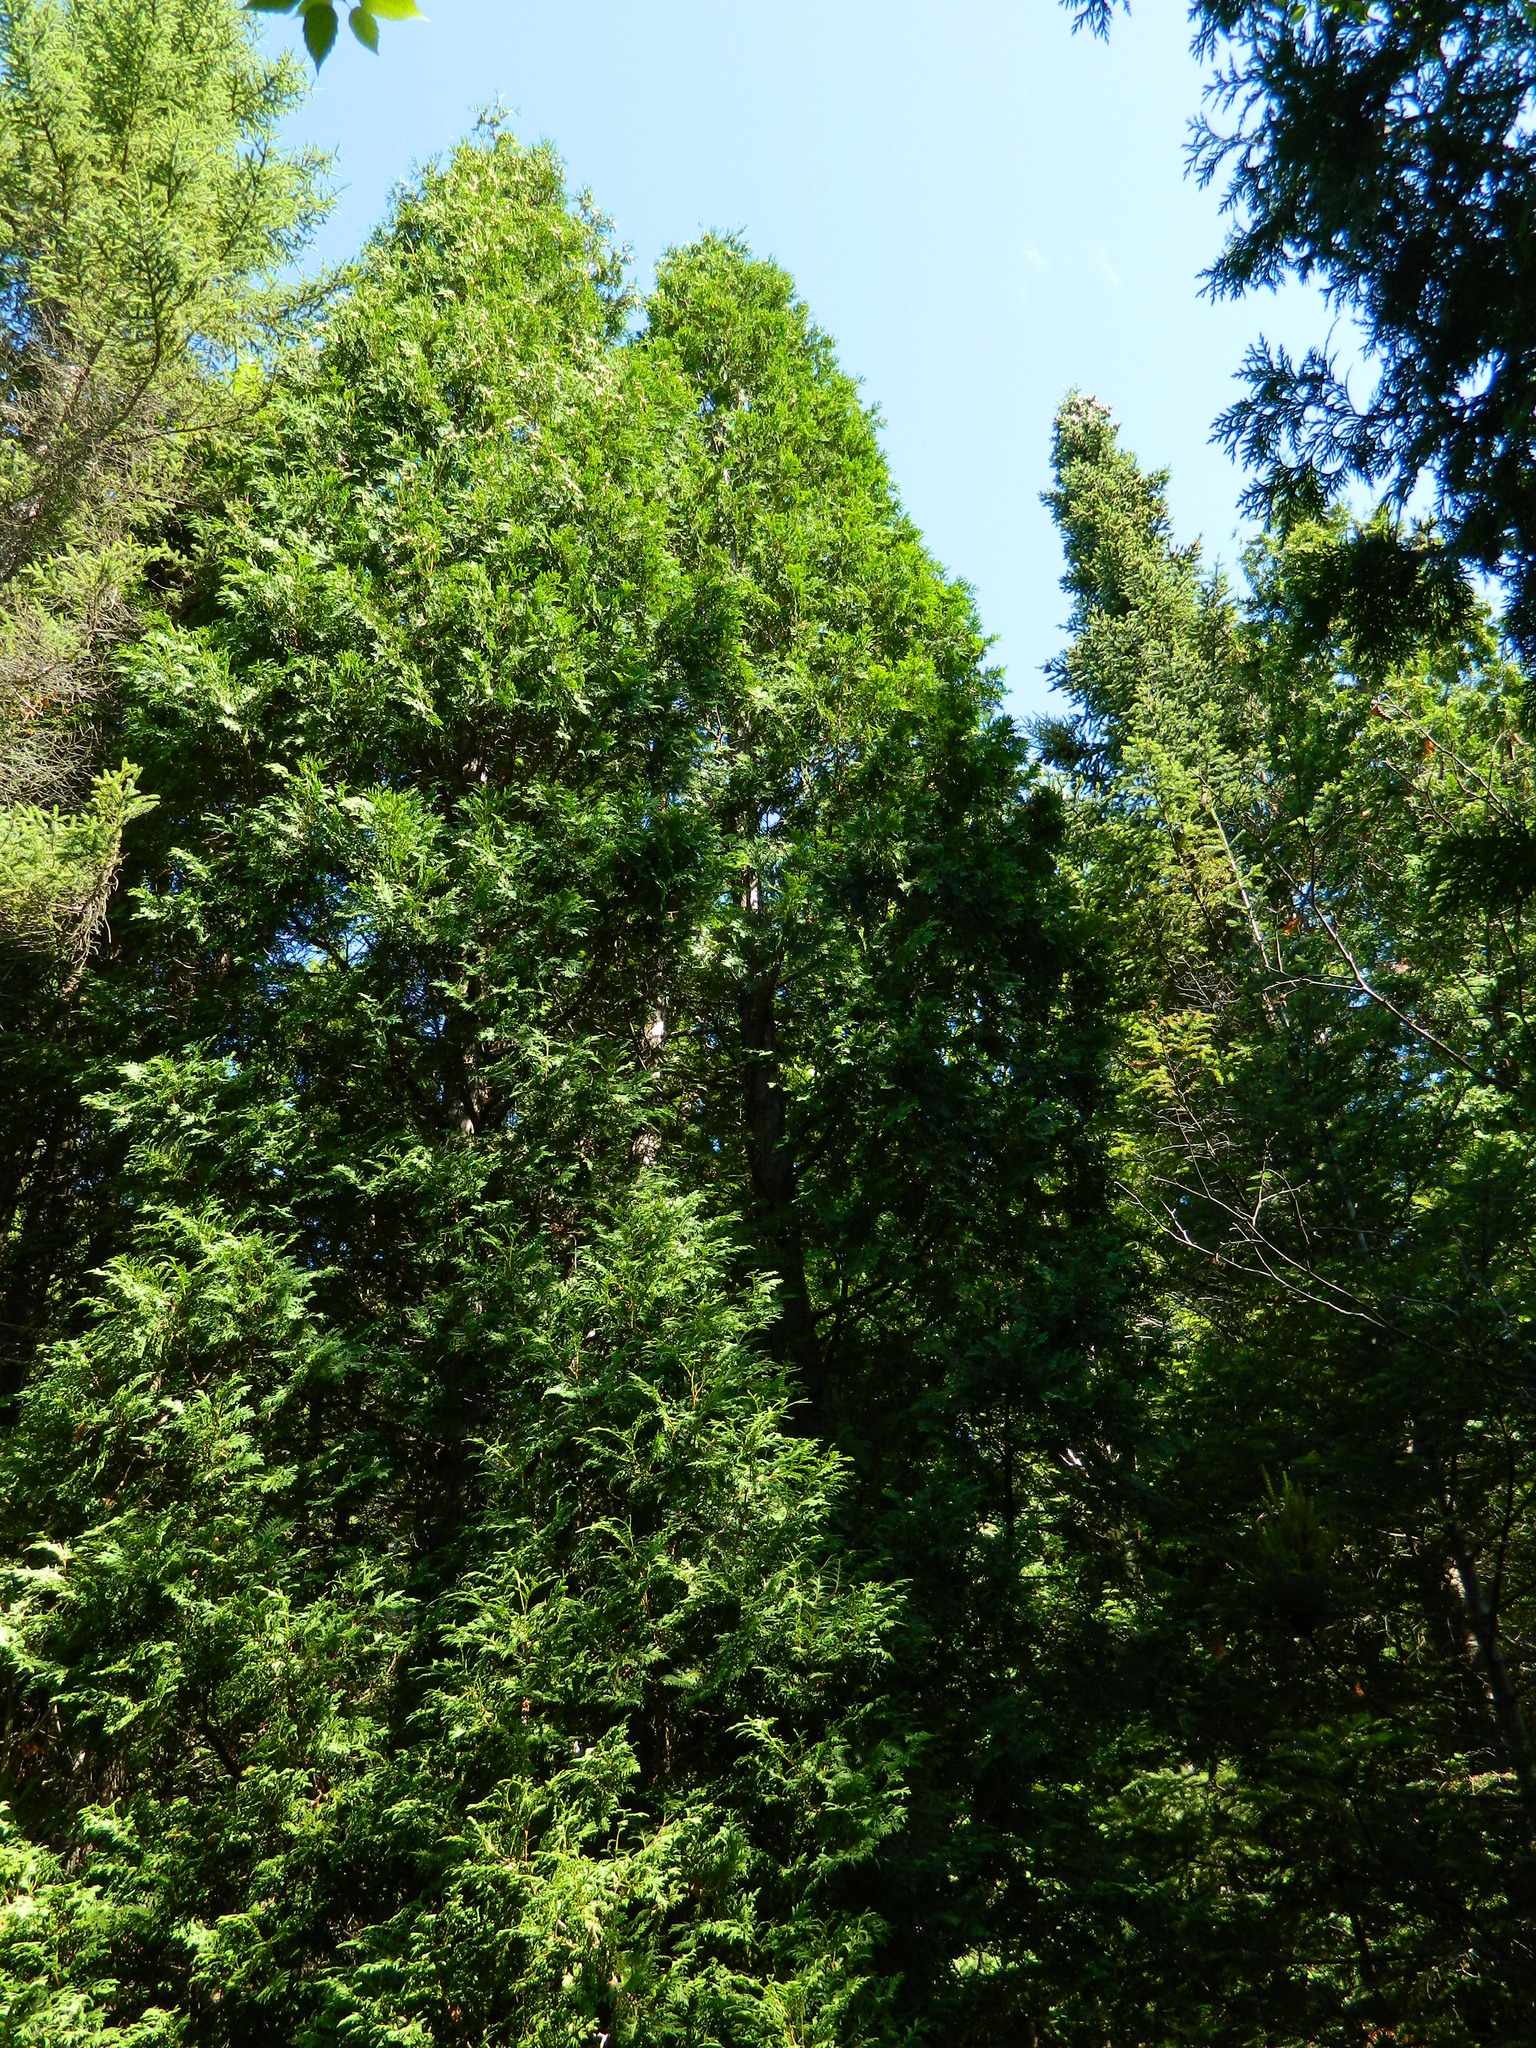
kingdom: Plantae
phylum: Tracheophyta
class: Pinopsida
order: Pinales
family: Cupressaceae
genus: Thuja
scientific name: Thuja occidentalis
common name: Northern white-cedar
